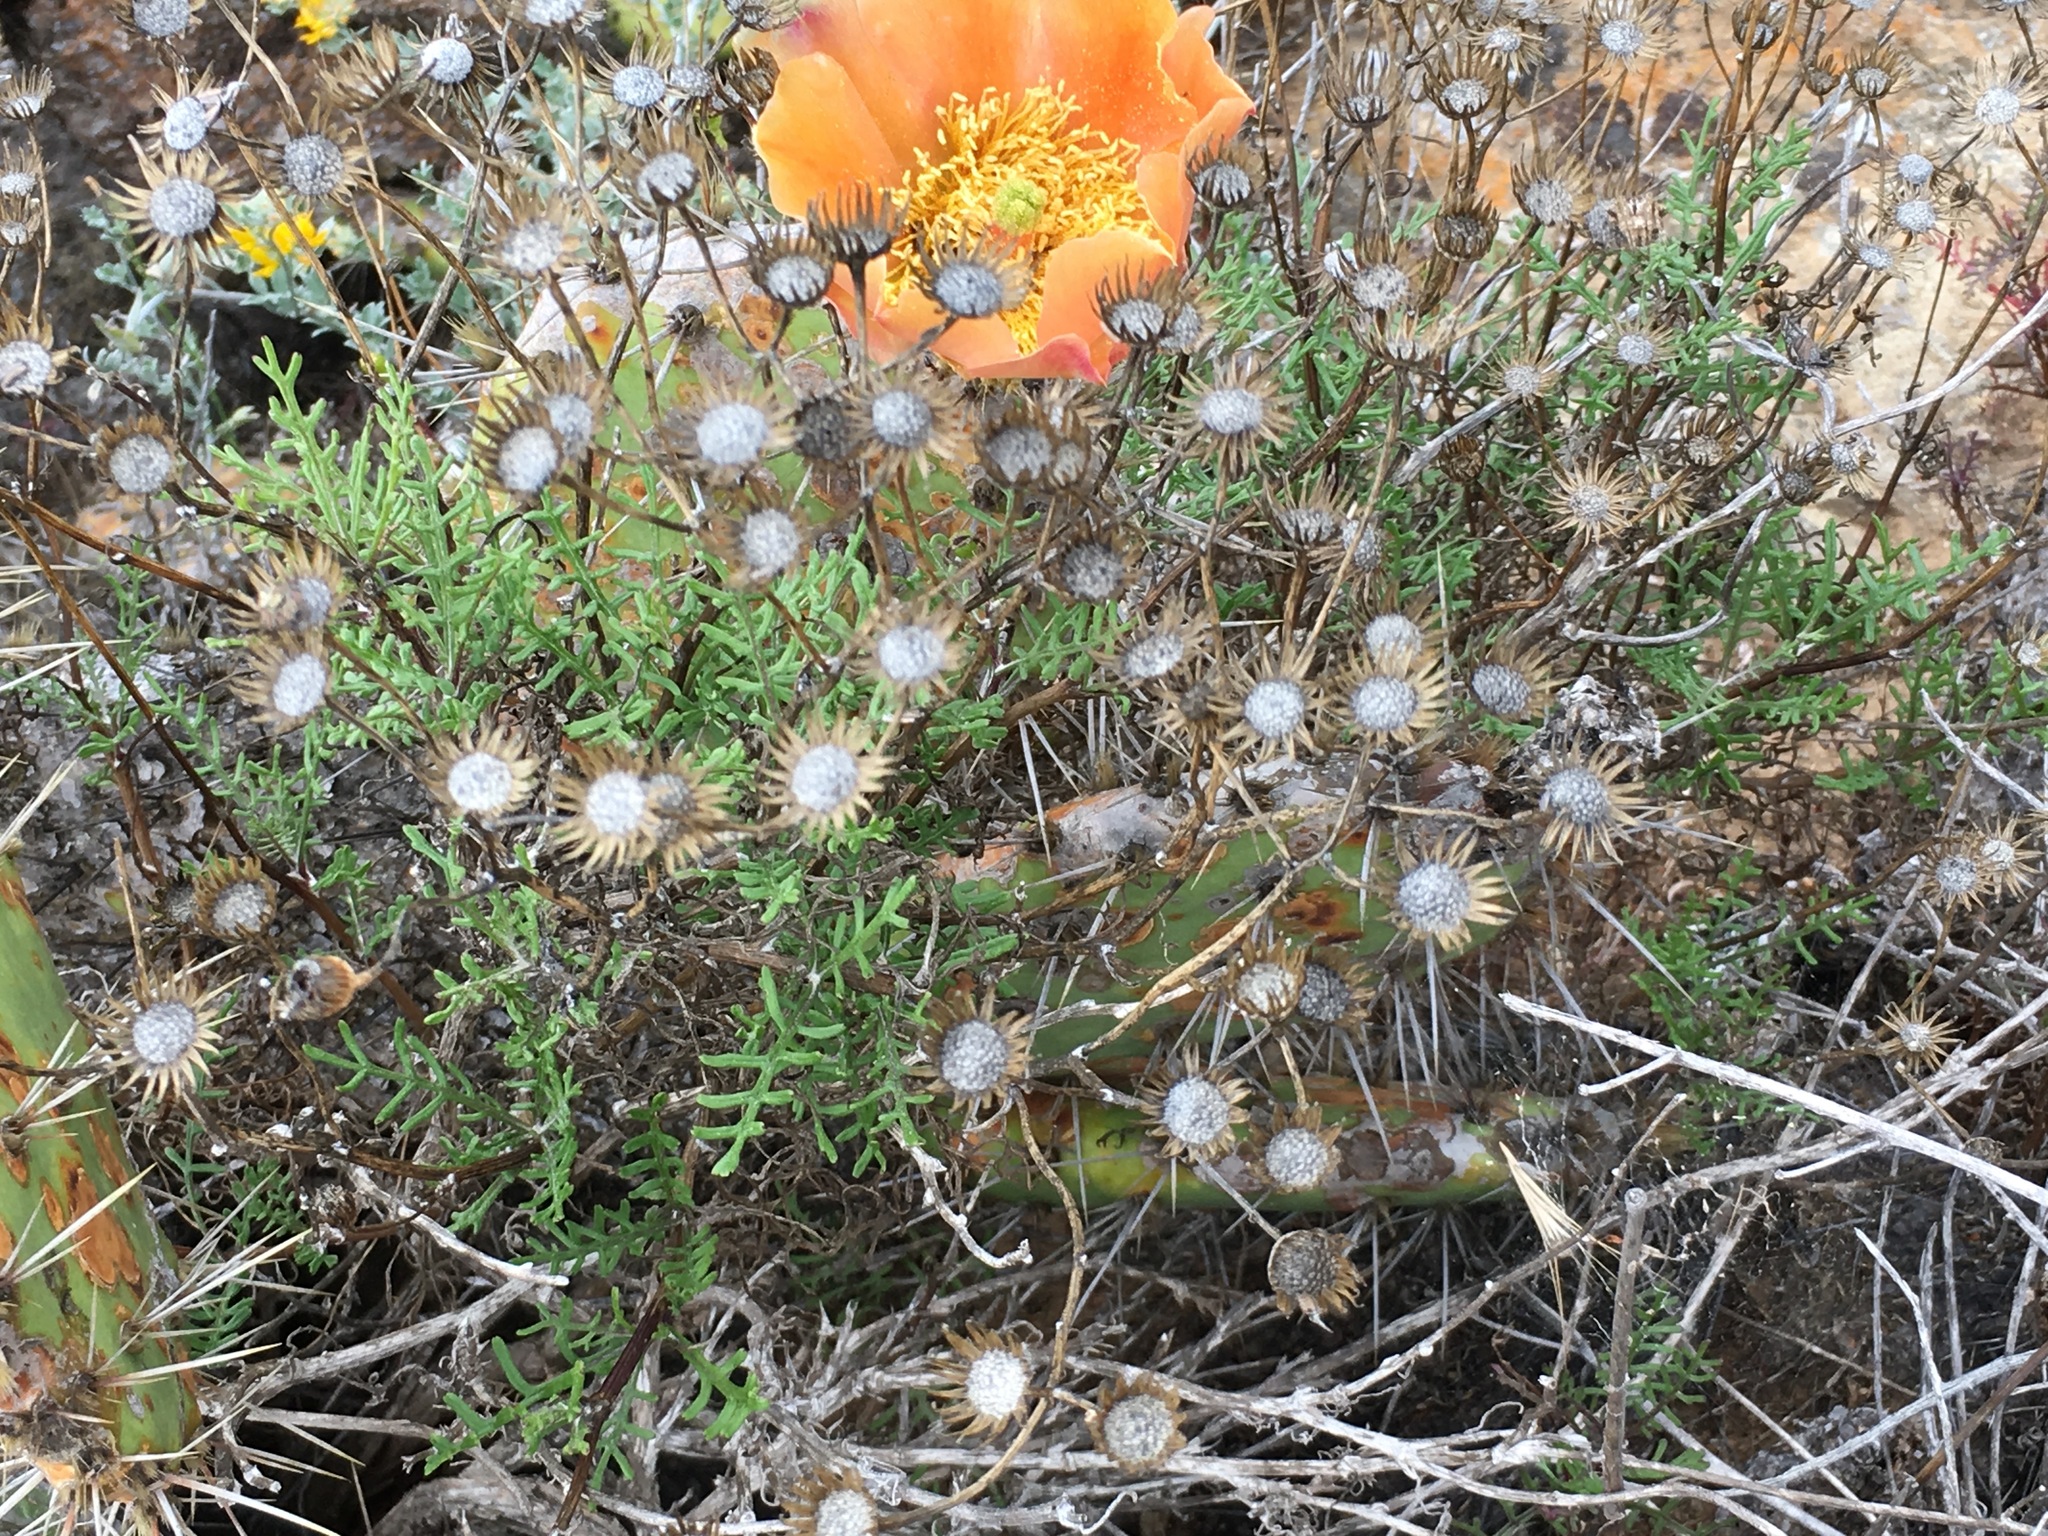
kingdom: Plantae
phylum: Tracheophyta
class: Magnoliopsida
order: Asterales
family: Asteraceae
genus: Senecio
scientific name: Senecio lyonii
